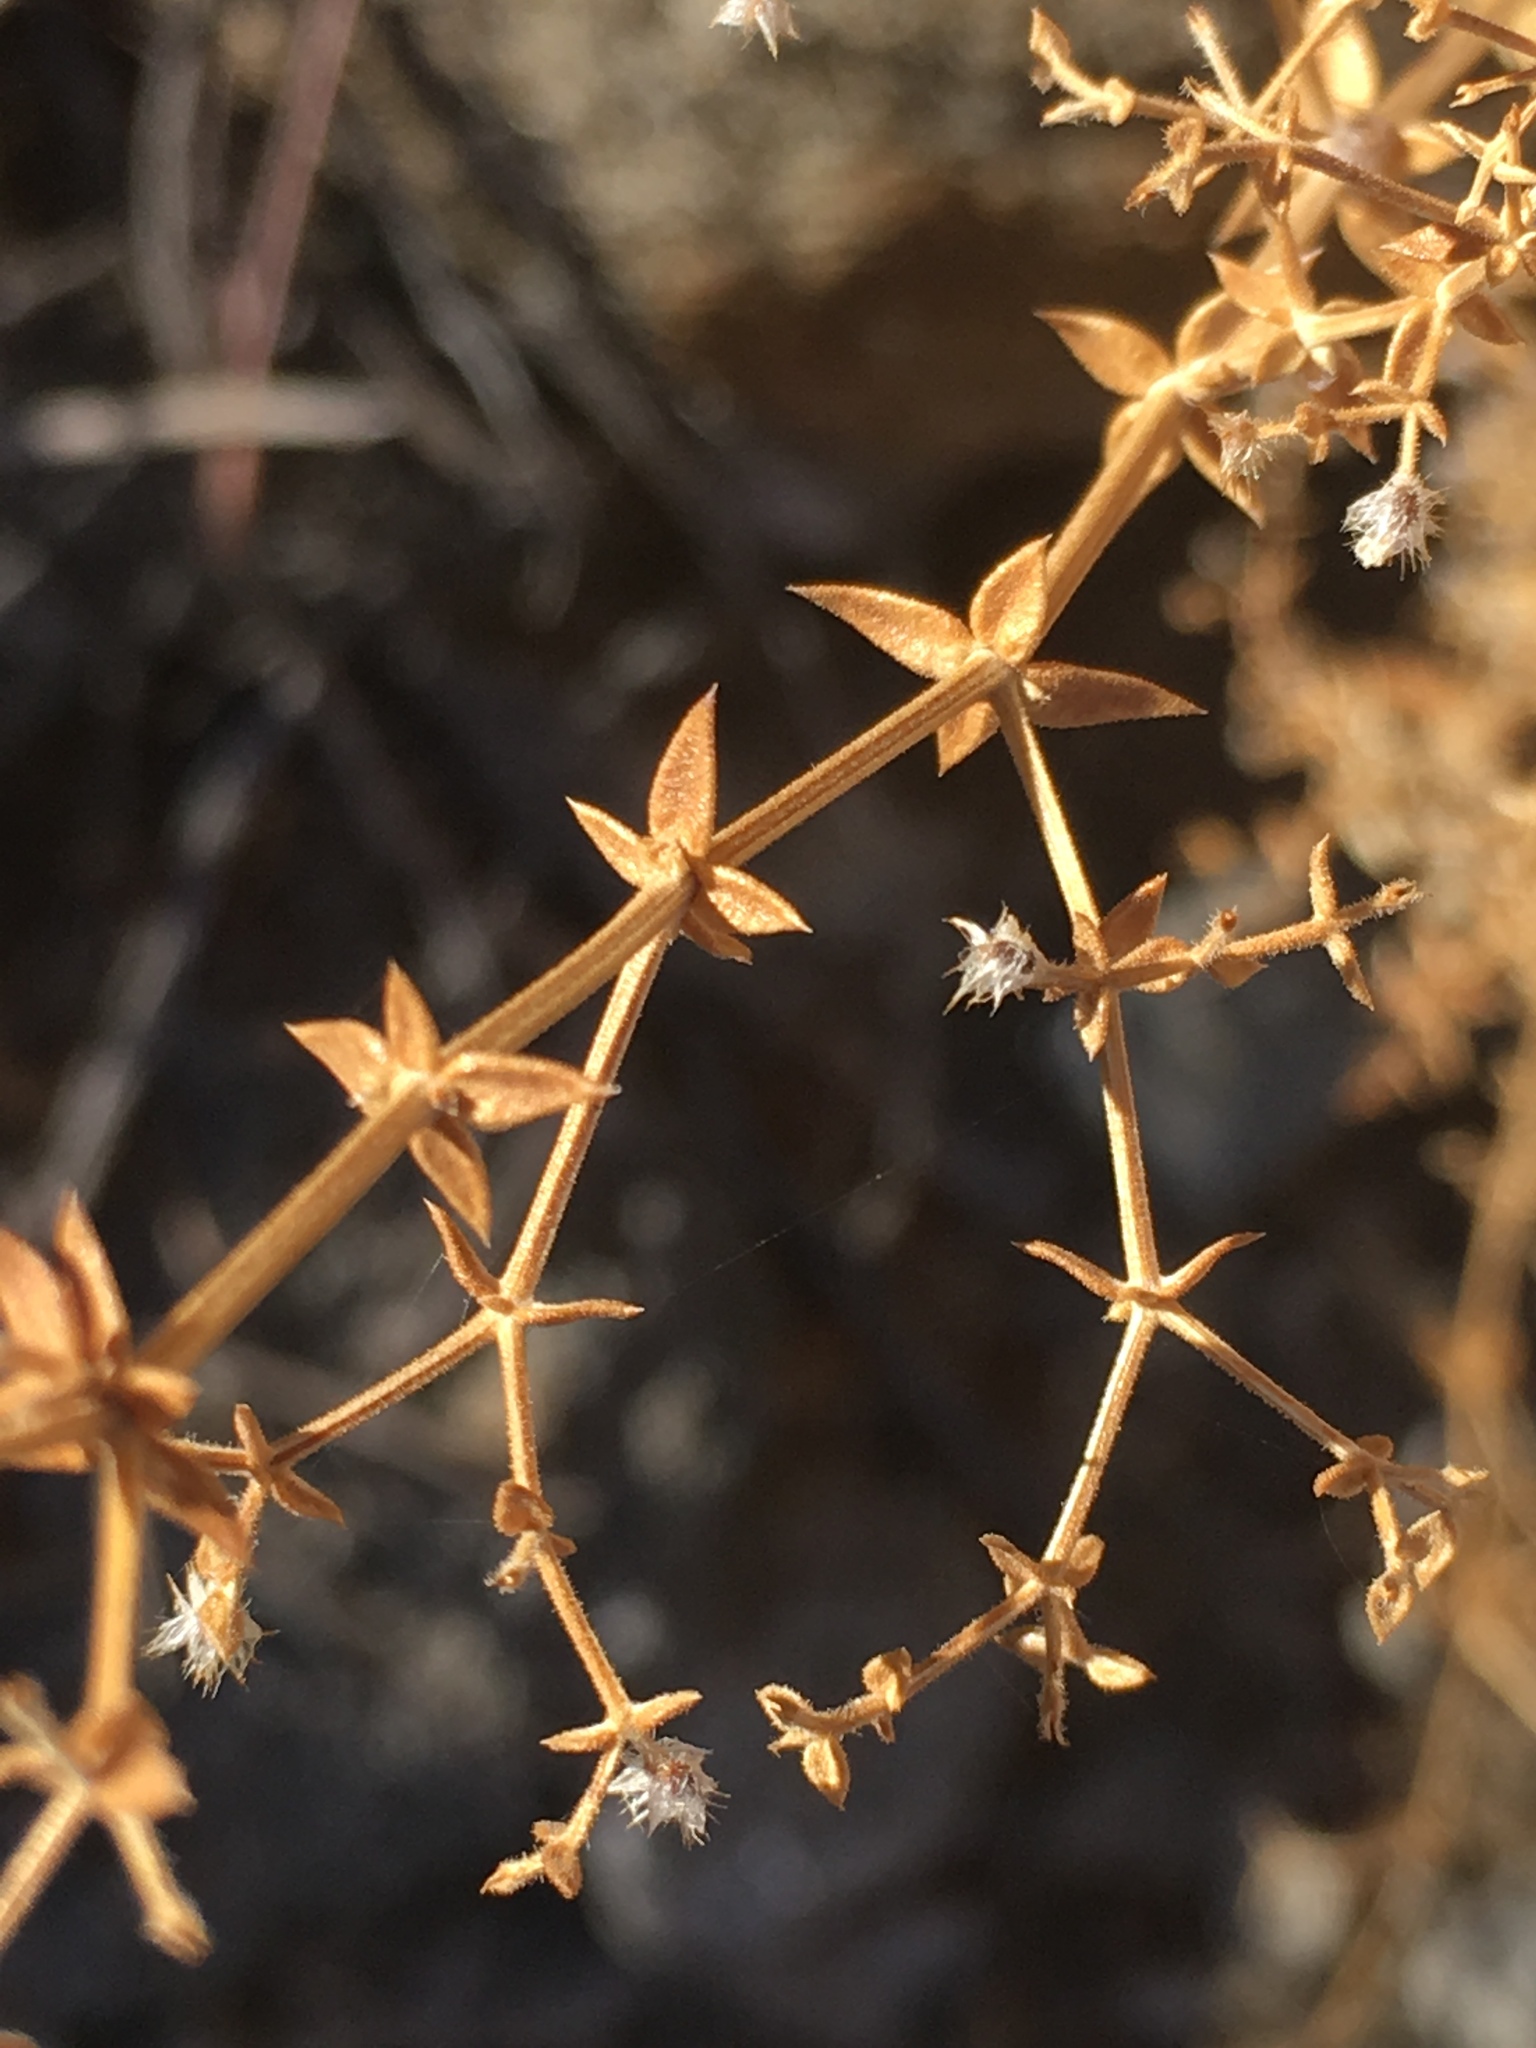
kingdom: Plantae
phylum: Tracheophyta
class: Magnoliopsida
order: Gentianales
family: Rubiaceae
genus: Galium
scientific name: Galium stellatum
